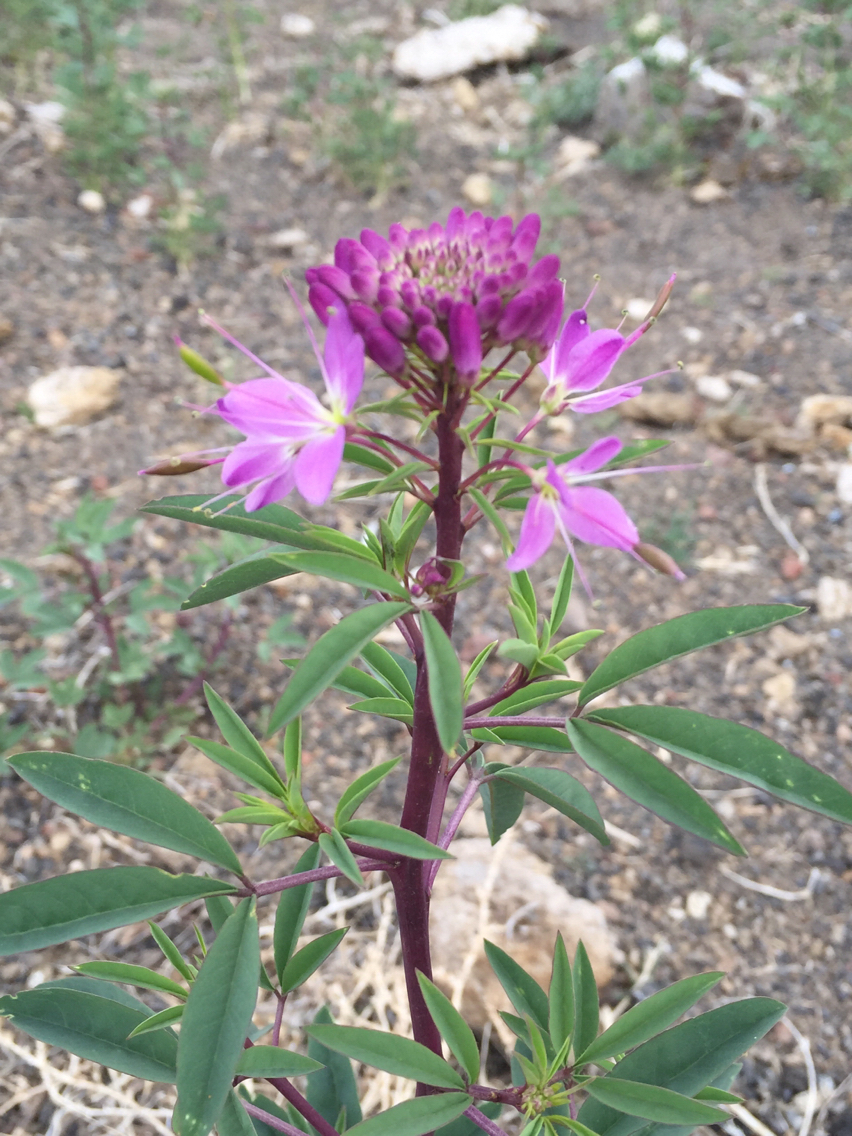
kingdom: Plantae
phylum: Tracheophyta
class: Magnoliopsida
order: Brassicales
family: Cleomaceae
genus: Cleomella
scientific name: Cleomella serrulata
